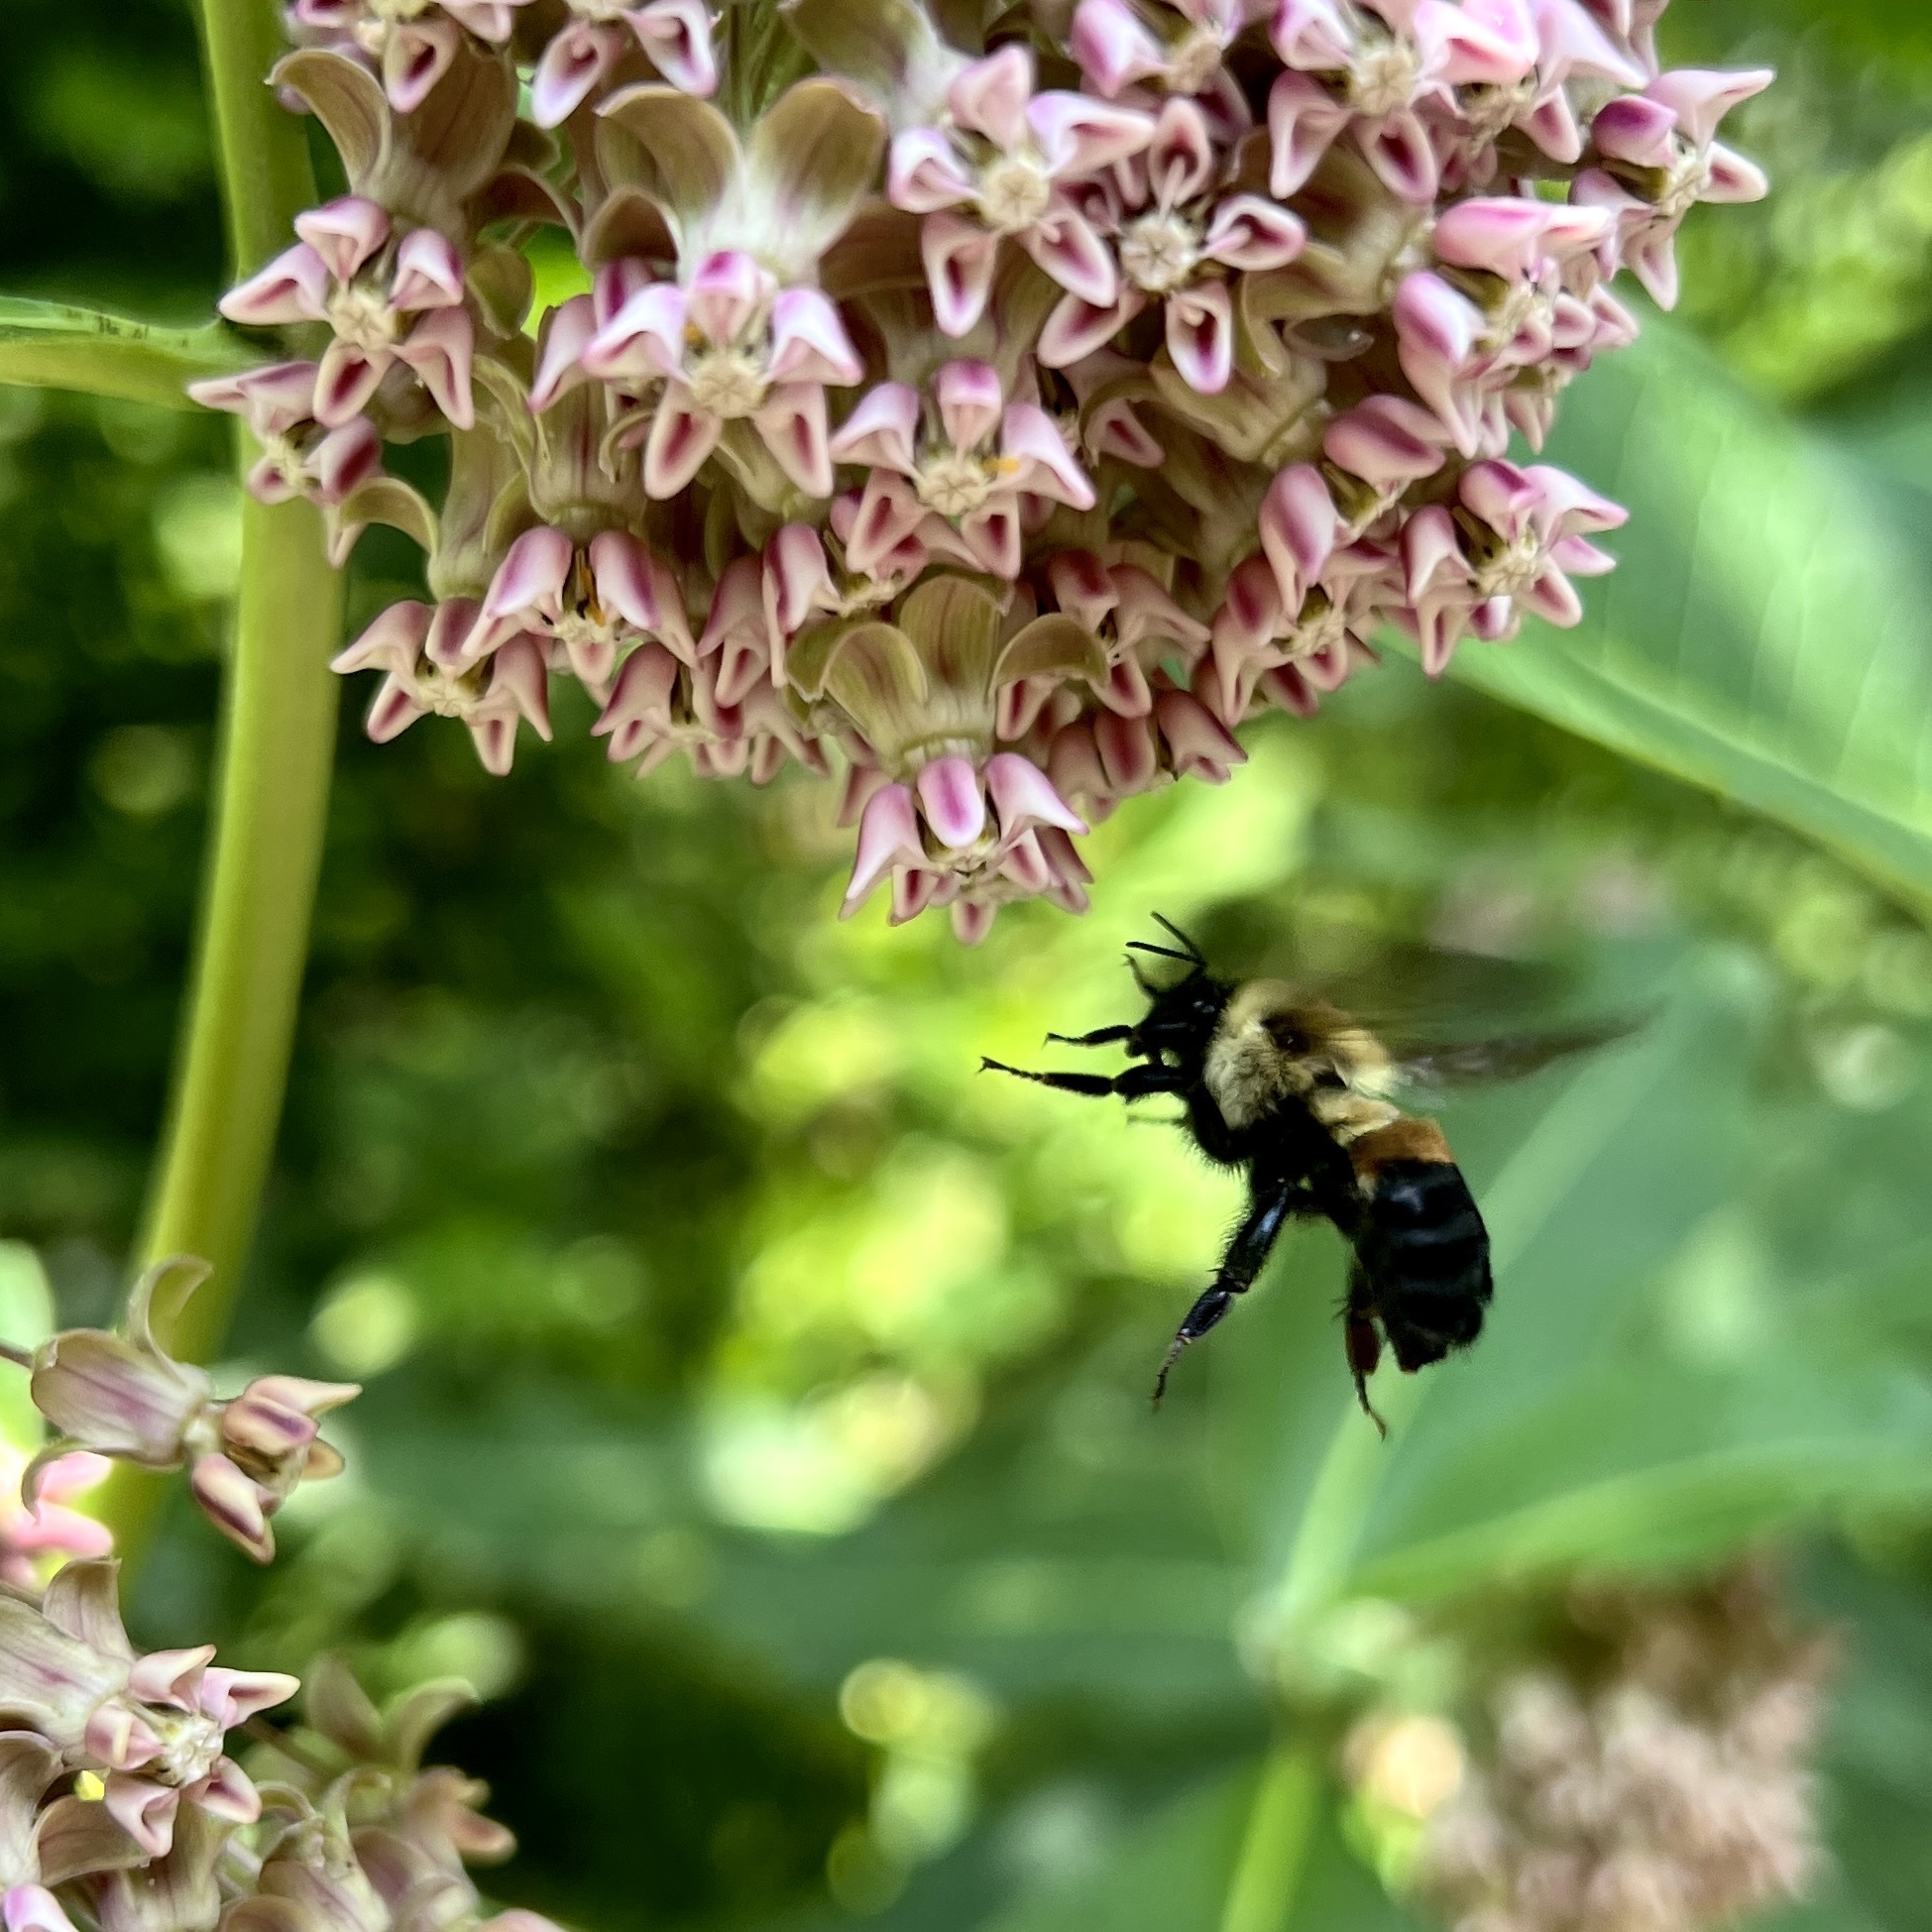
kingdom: Animalia
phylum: Arthropoda
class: Insecta
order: Hymenoptera
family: Apidae
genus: Bombus
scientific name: Bombus griseocollis
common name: Brown-belted bumble bee
